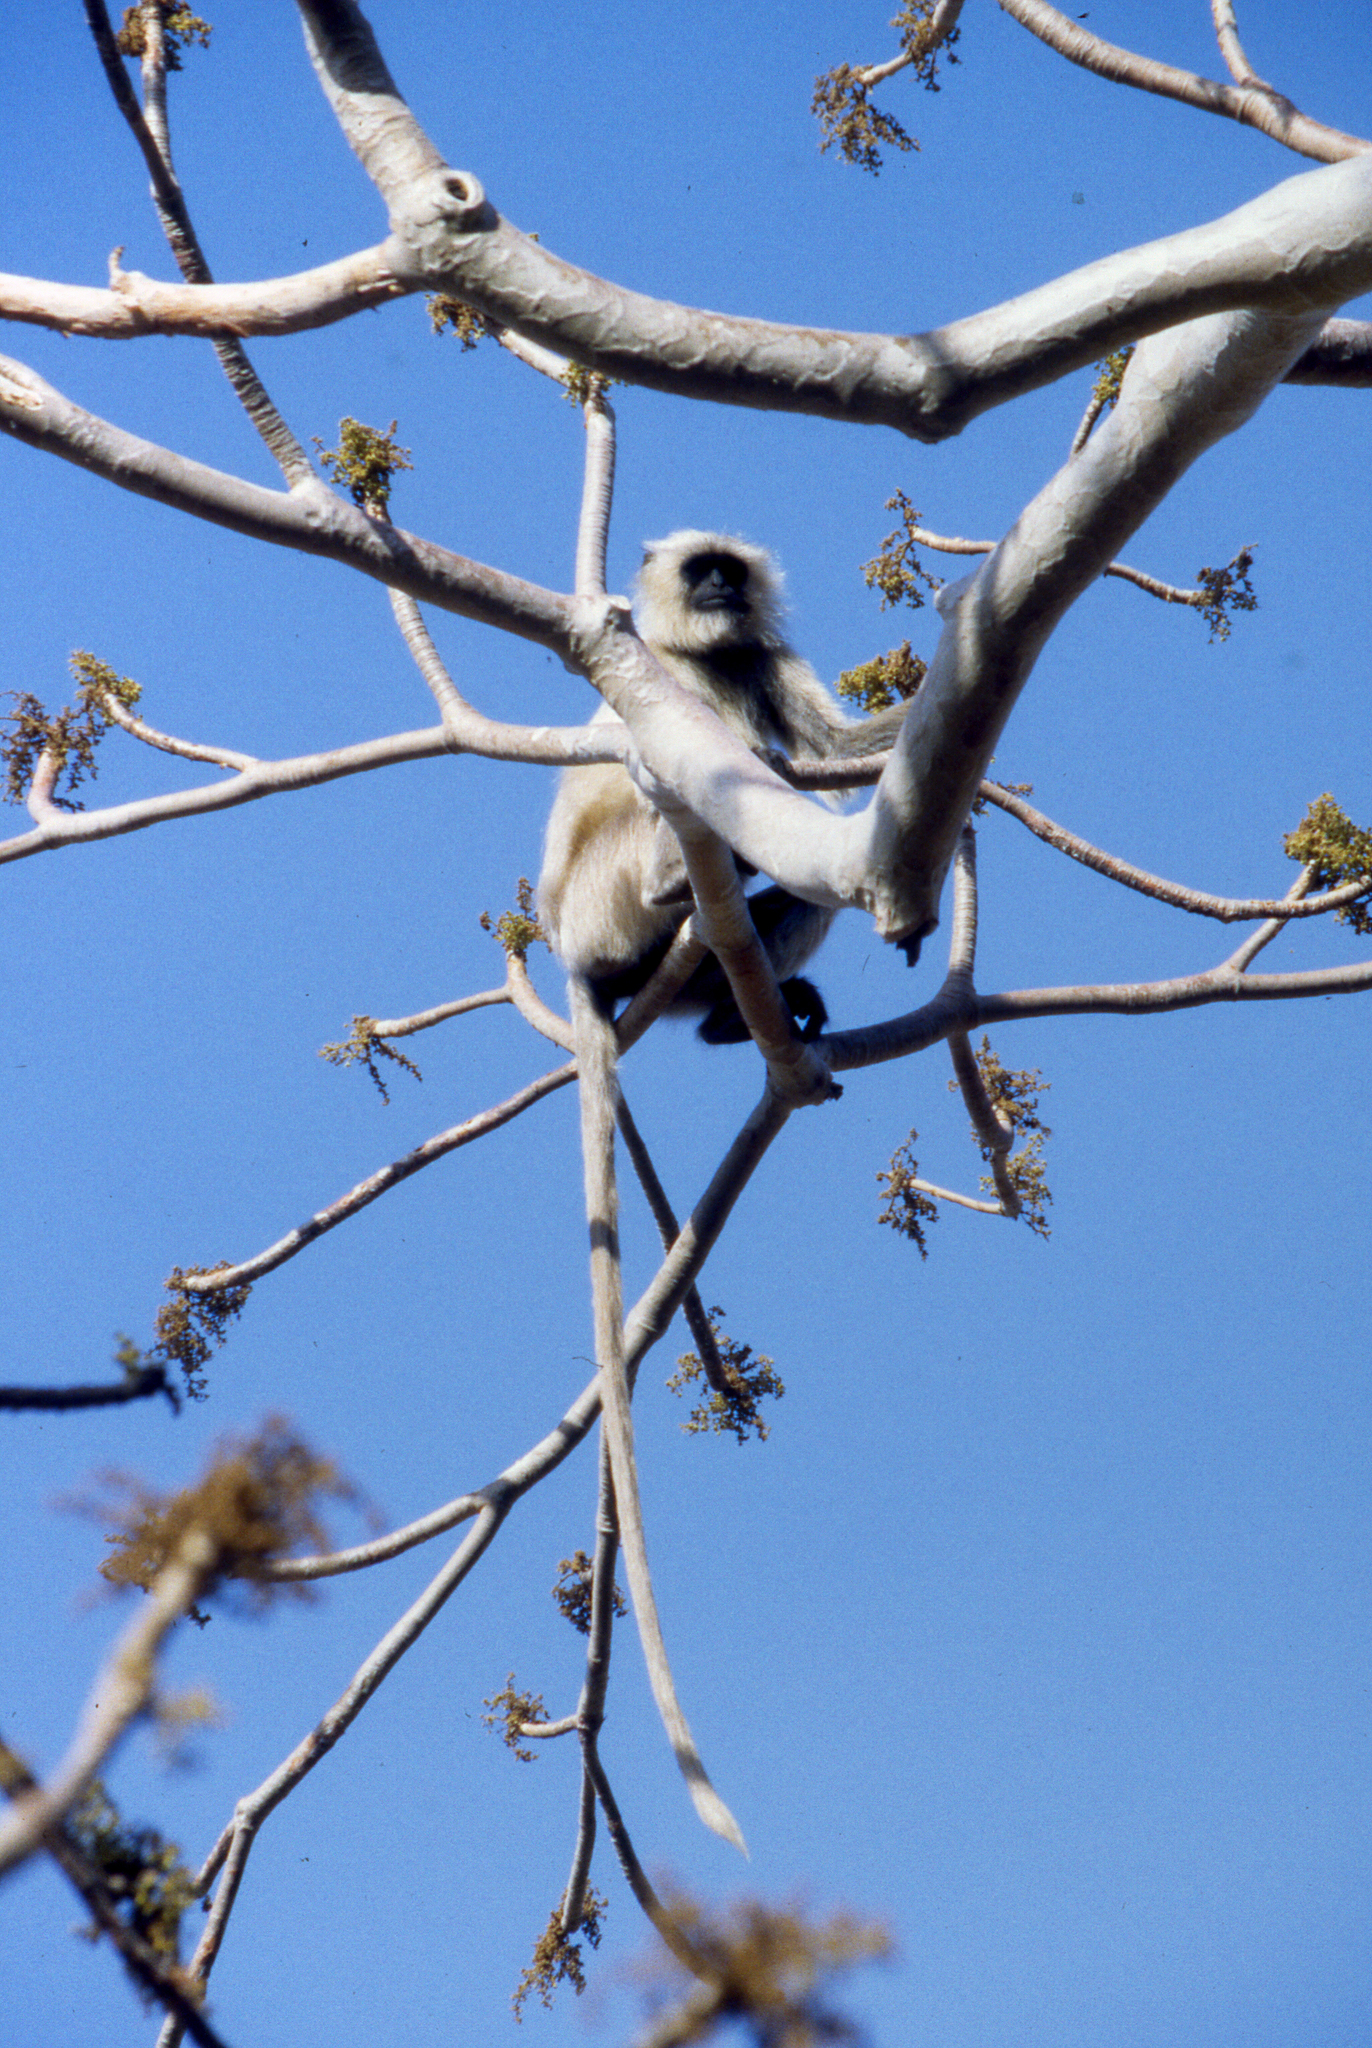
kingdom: Animalia
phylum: Chordata
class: Mammalia
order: Primates
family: Cercopithecidae
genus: Semnopithecus
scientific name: Semnopithecus entellus
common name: Northern plains gray langur
